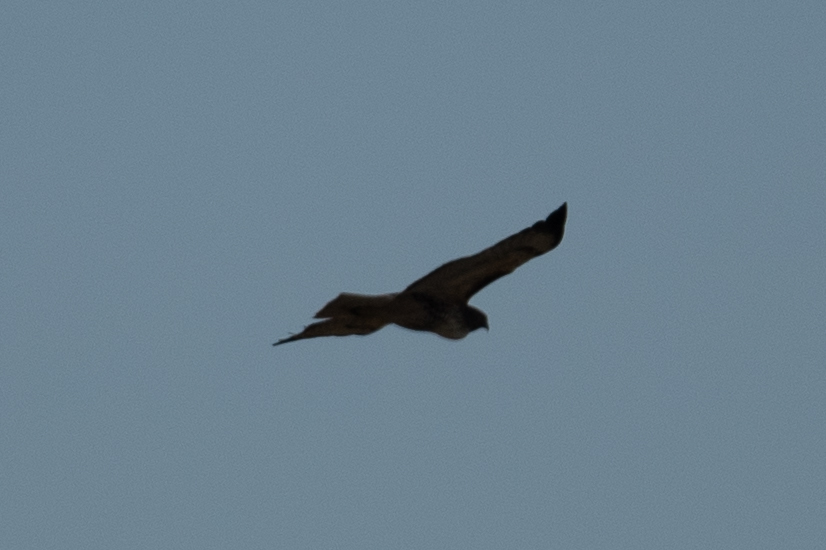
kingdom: Animalia
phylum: Chordata
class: Aves
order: Accipitriformes
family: Accipitridae
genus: Buteo
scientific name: Buteo jamaicensis
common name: Red-tailed hawk
